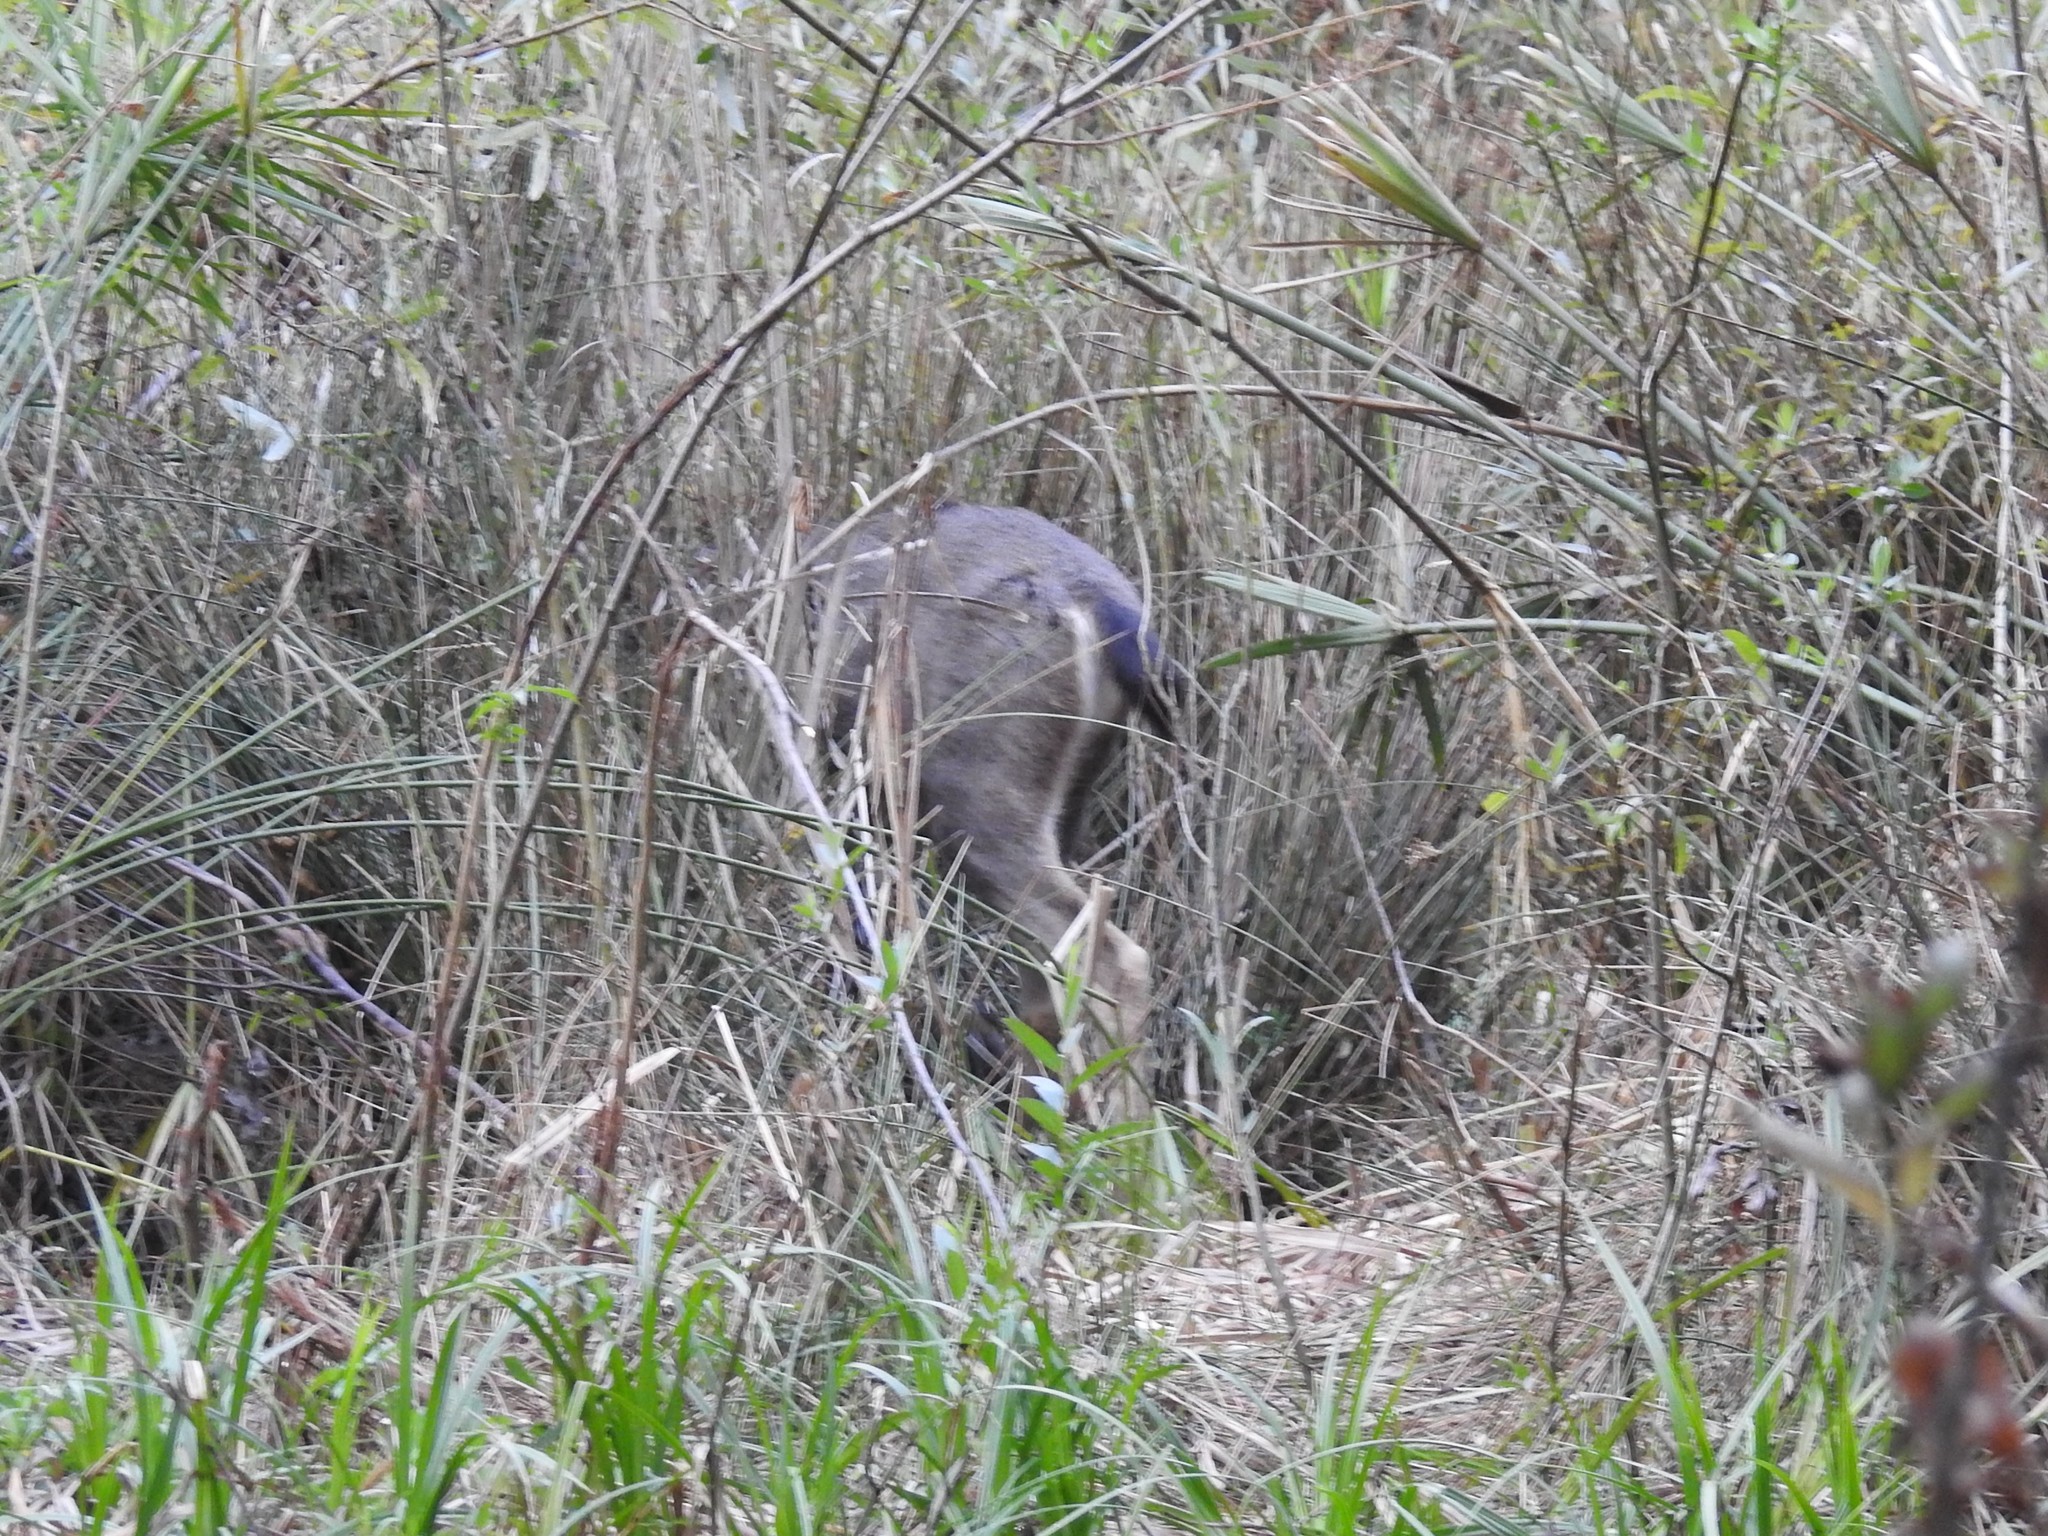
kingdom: Animalia
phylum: Chordata
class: Mammalia
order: Artiodactyla
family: Cervidae
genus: Odocoileus
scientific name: Odocoileus hemionus
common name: Mule deer
